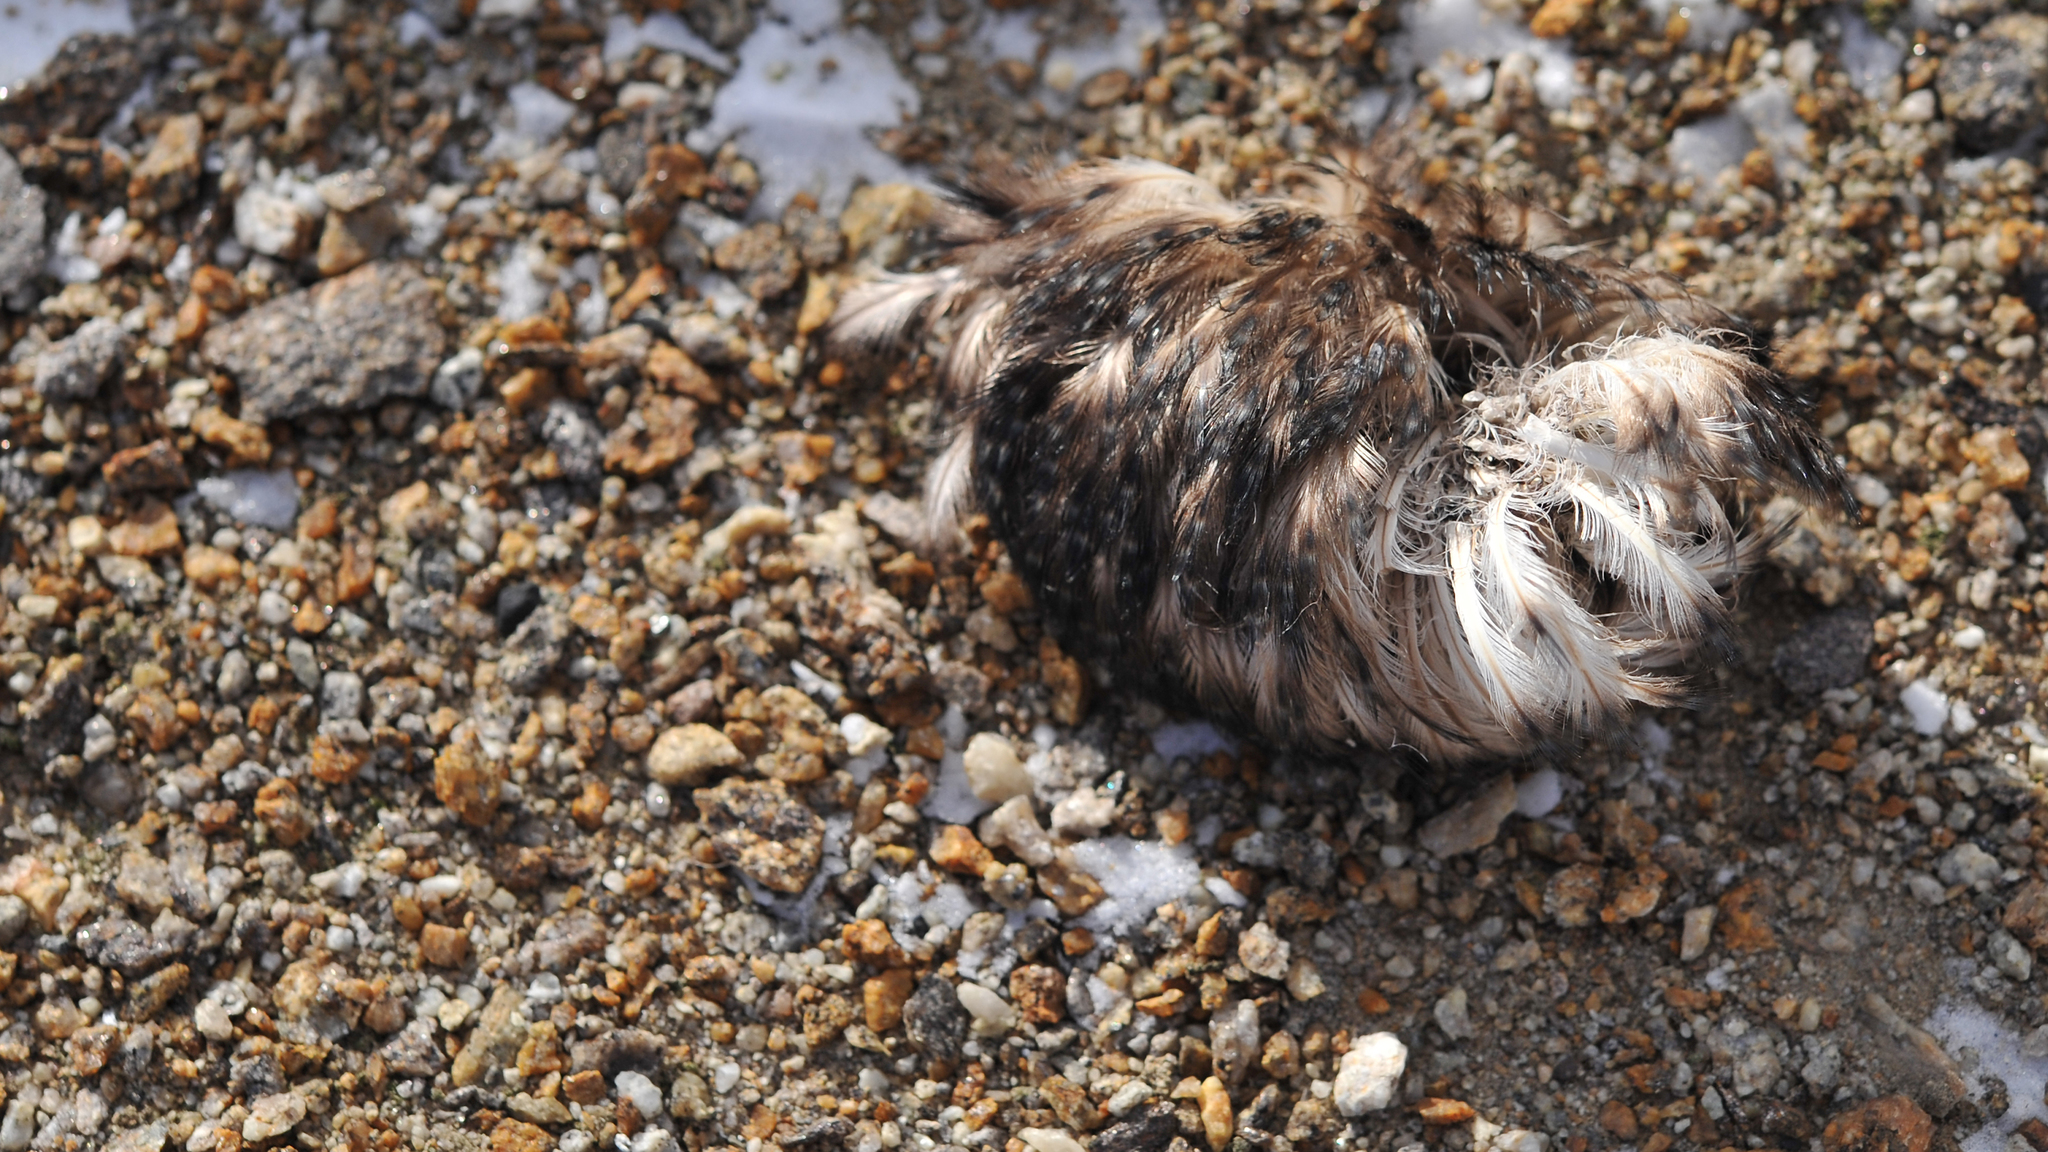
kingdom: Animalia
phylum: Chordata
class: Aves
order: Charadriiformes
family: Stercorariidae
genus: Stercorarius
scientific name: Stercorarius maccormicki
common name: South polar skua
